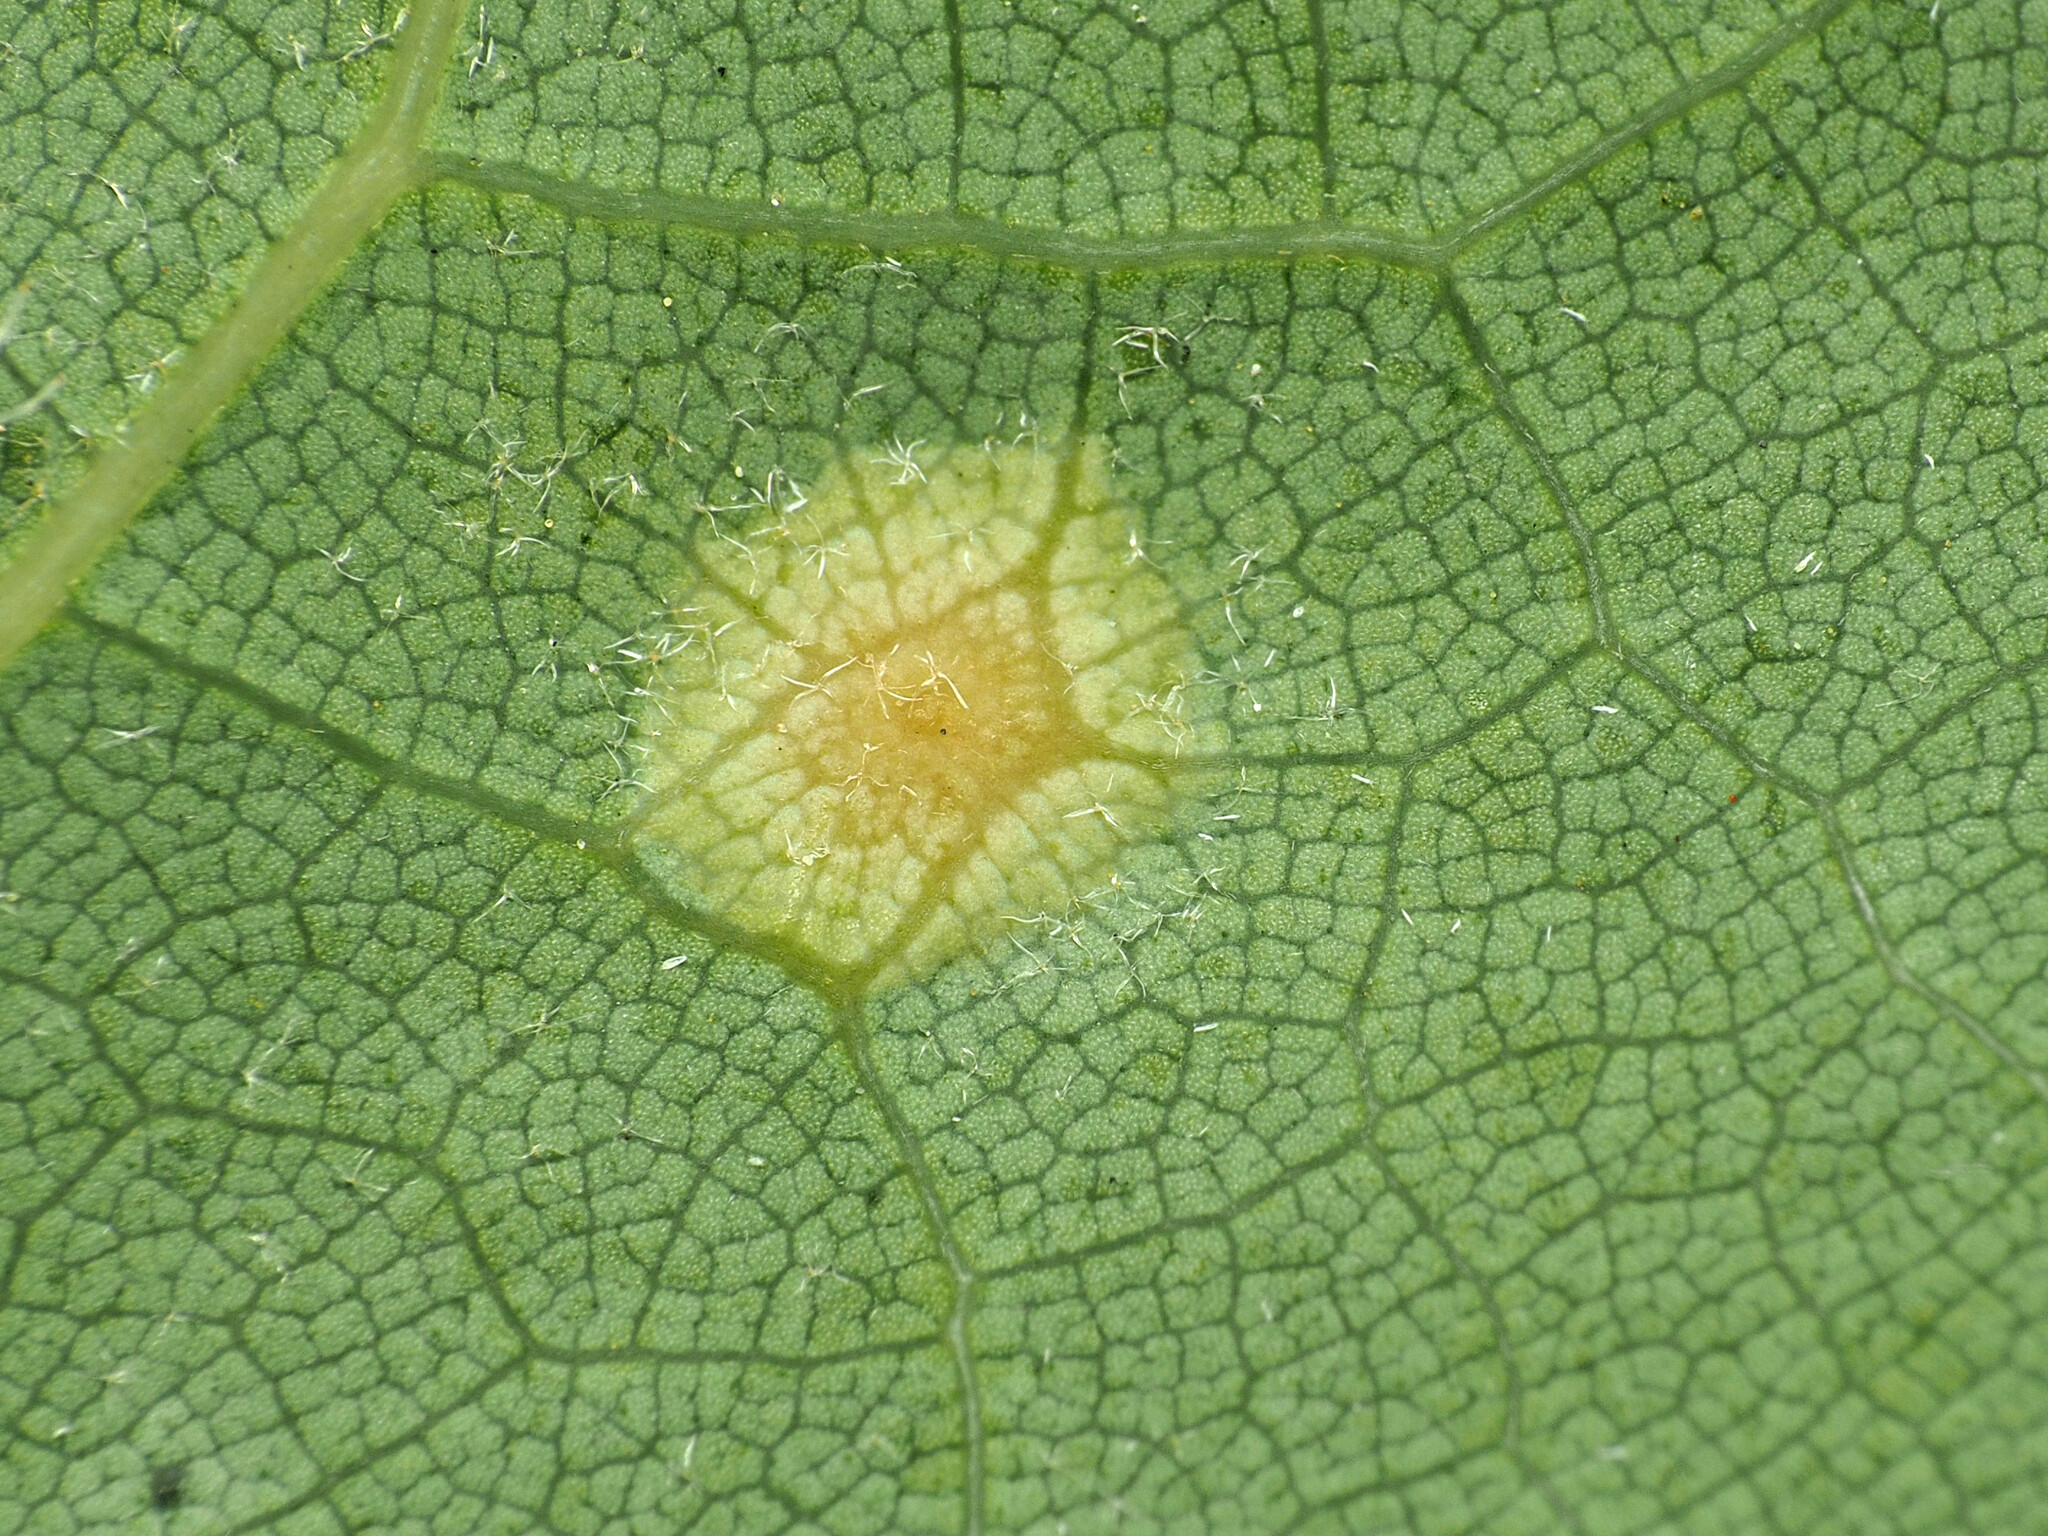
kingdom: Animalia
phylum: Arthropoda
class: Insecta
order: Diptera
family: Cecidomyiidae
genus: Polystepha
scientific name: Polystepha pilulae
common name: Oak leaf gall midge
